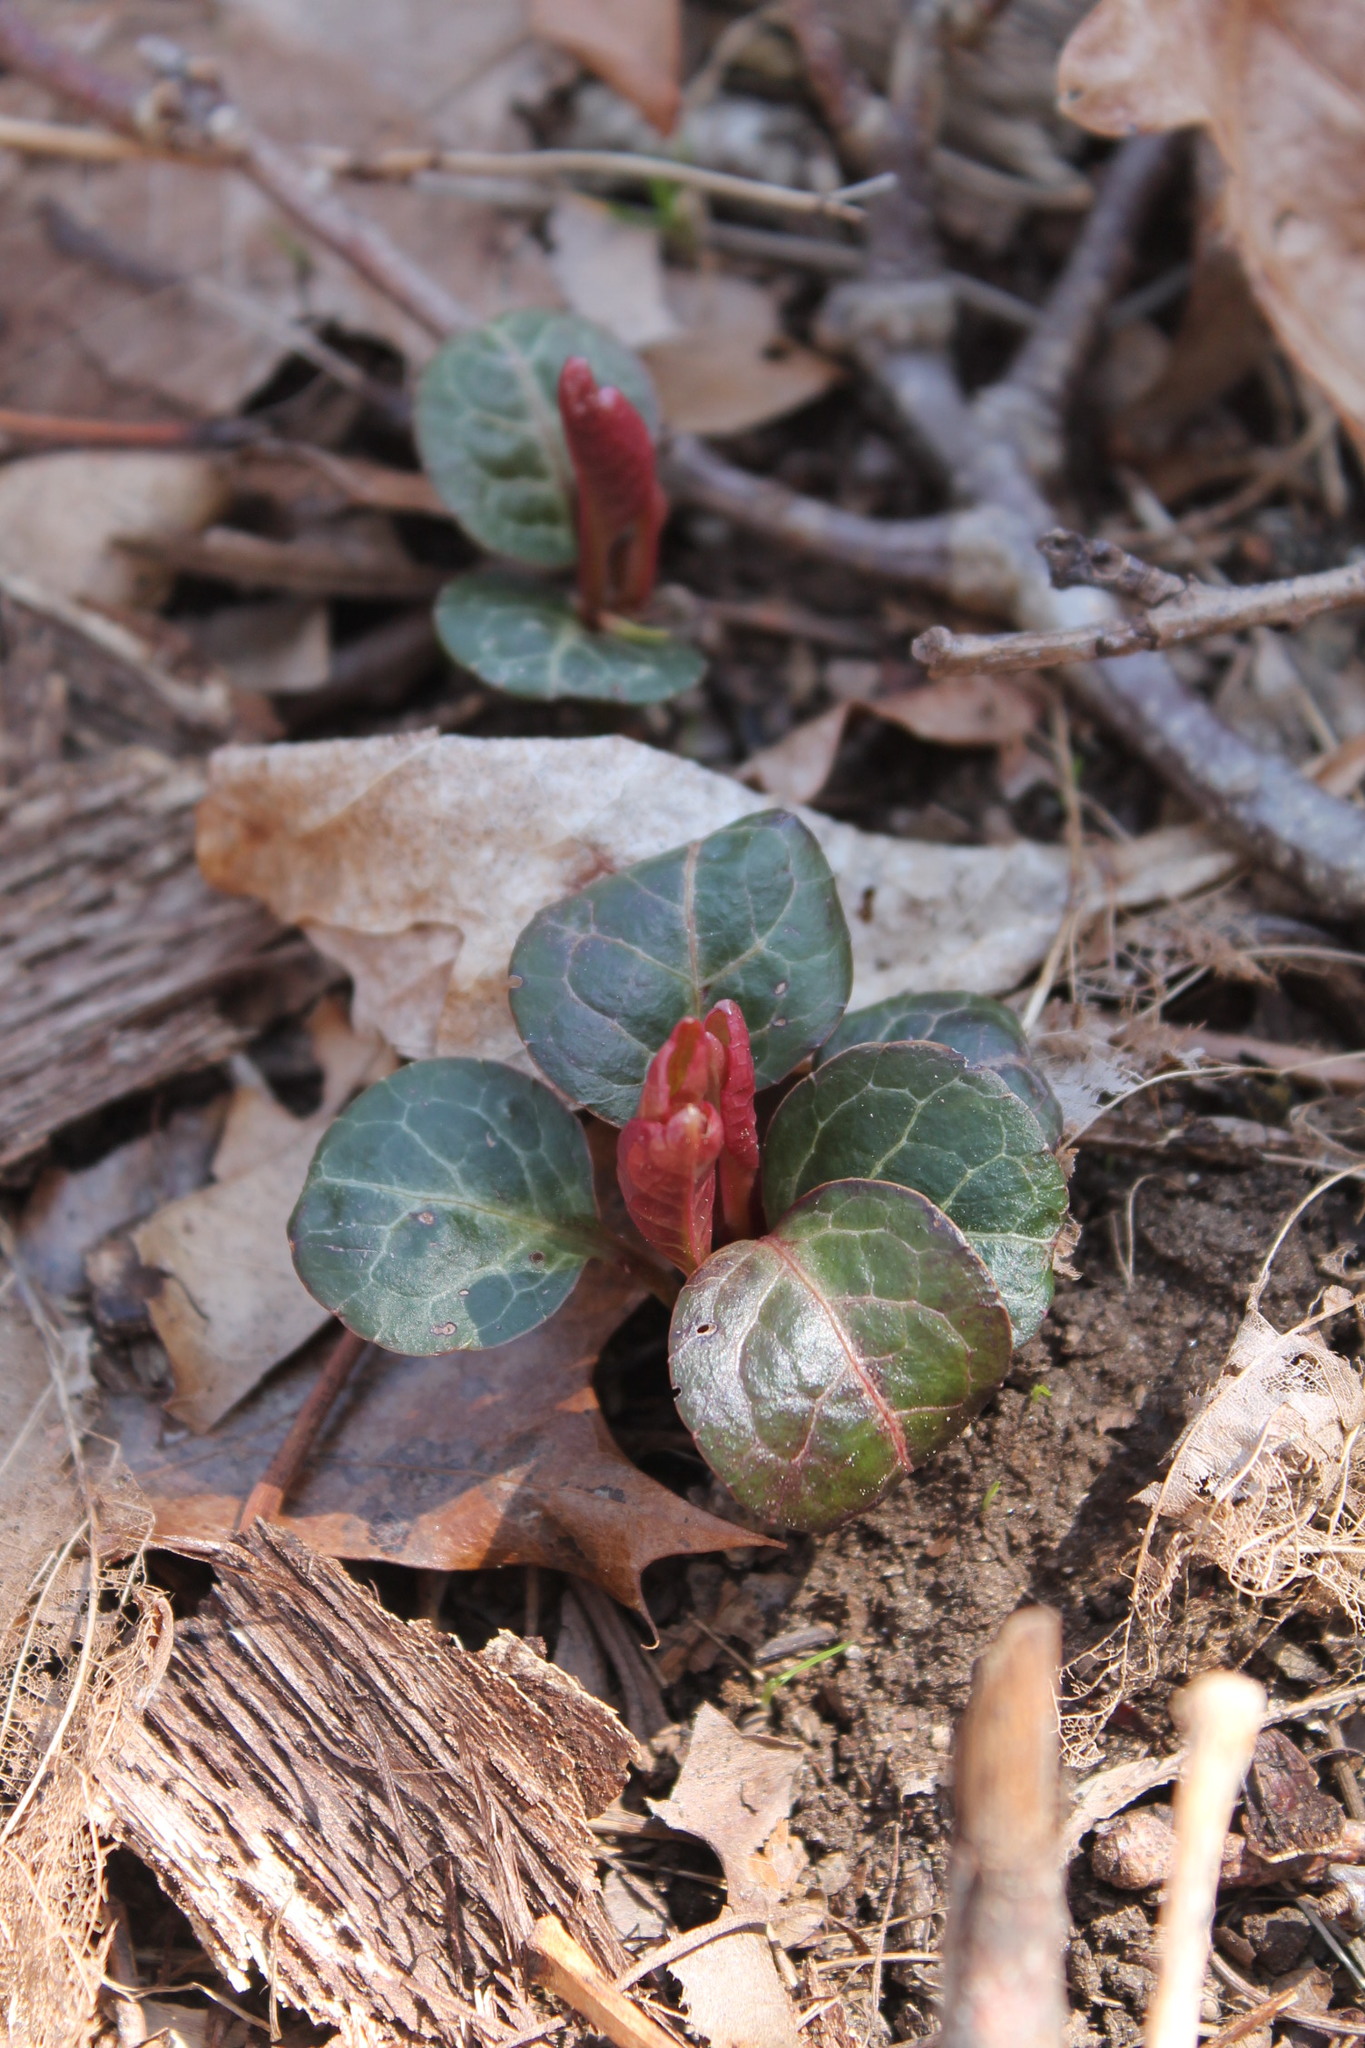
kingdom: Plantae
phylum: Tracheophyta
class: Magnoliopsida
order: Ericales
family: Ericaceae
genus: Pyrola
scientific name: Pyrola americana
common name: American wintergreen
